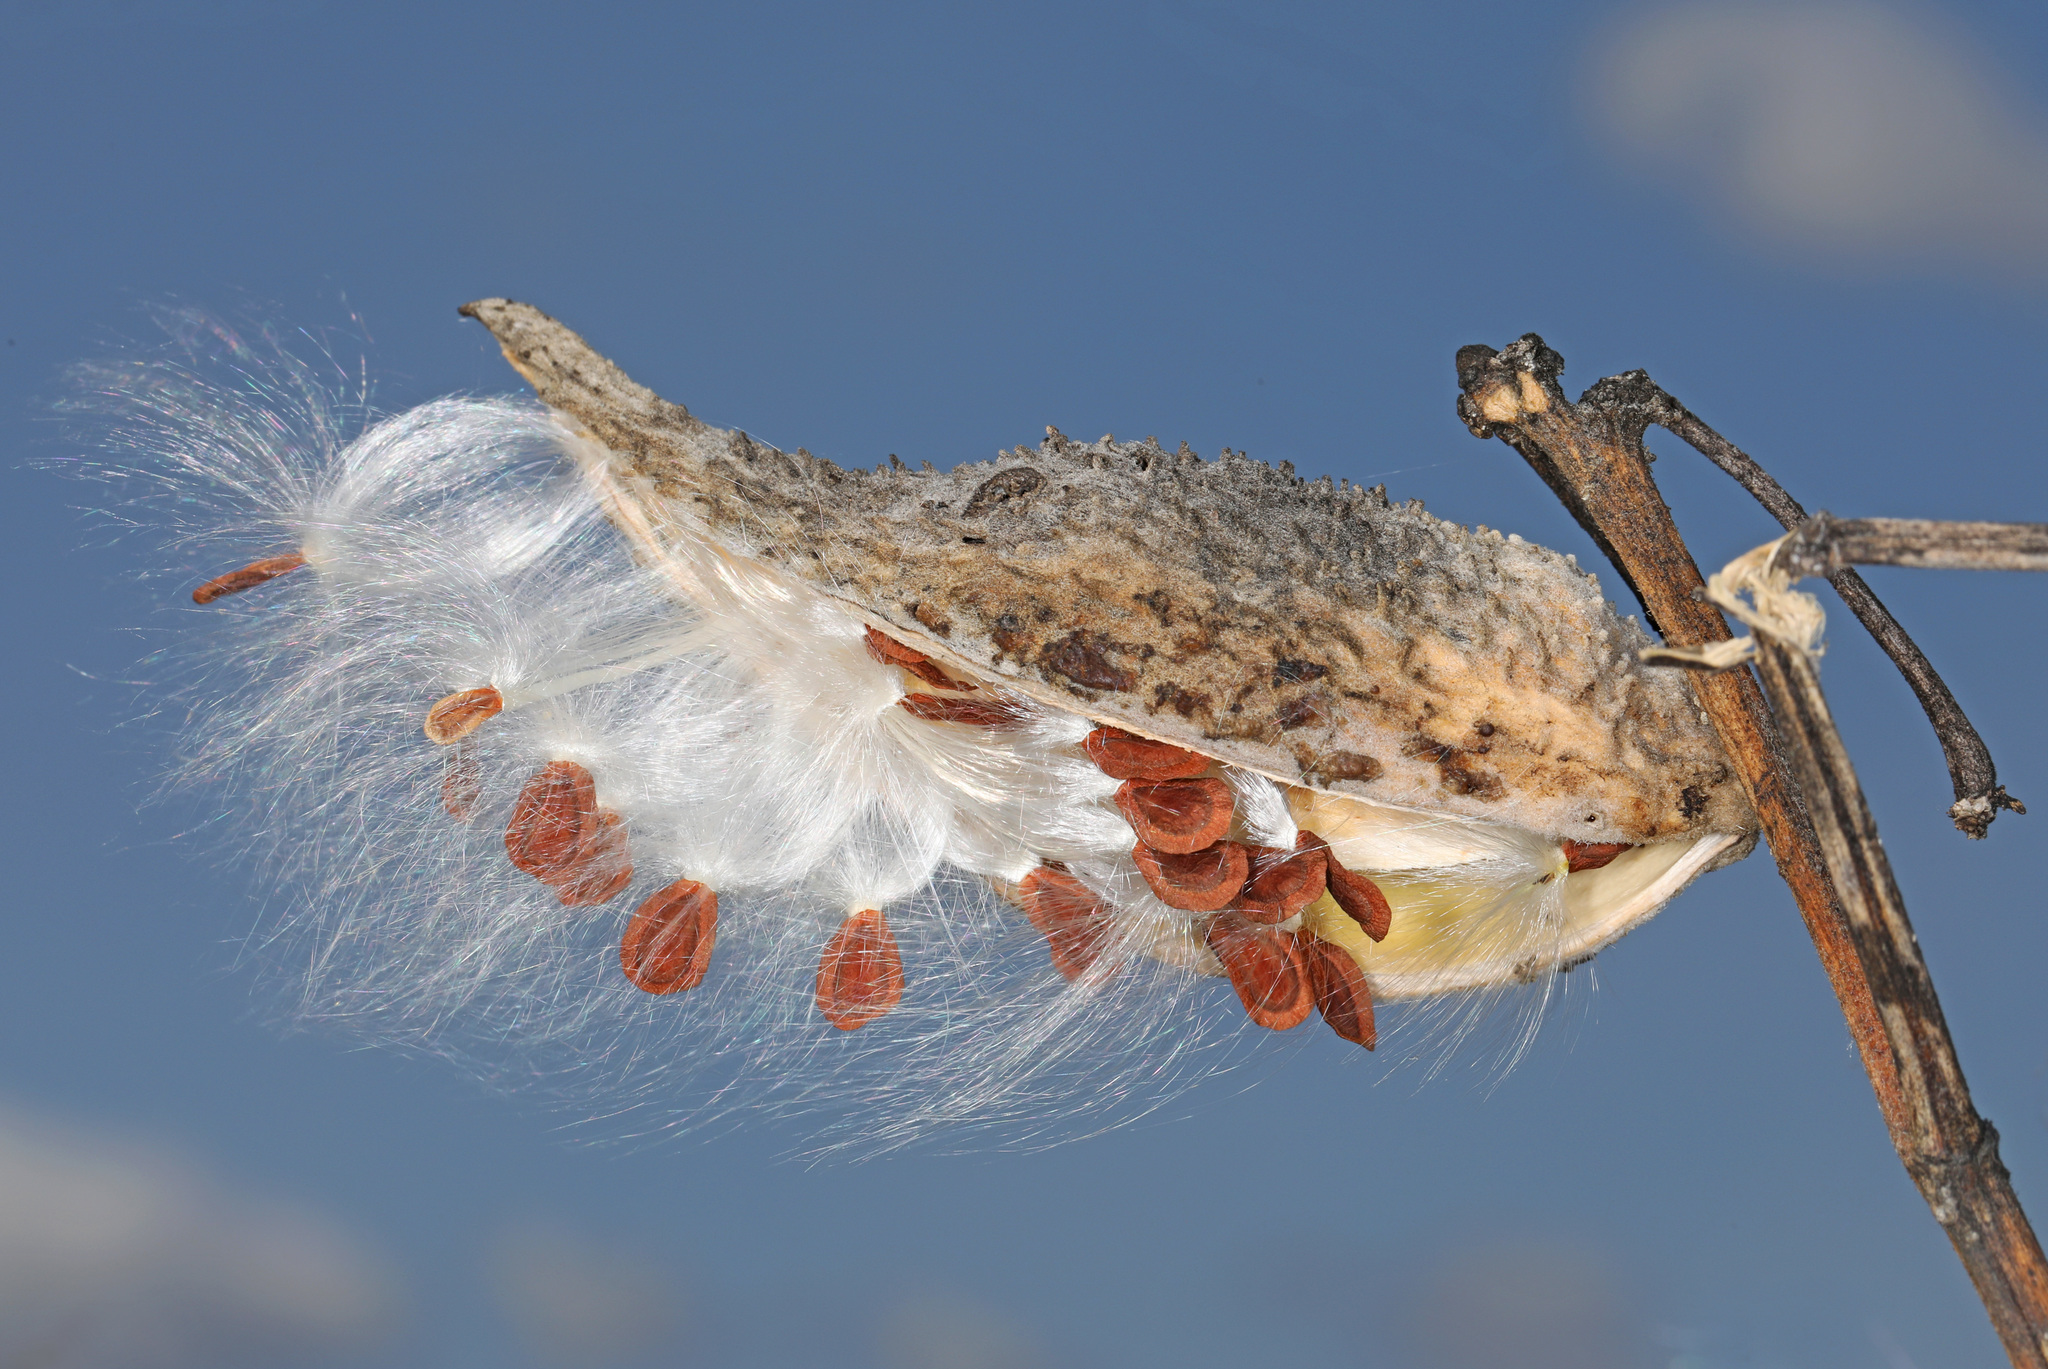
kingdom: Plantae
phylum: Tracheophyta
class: Magnoliopsida
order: Gentianales
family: Apocynaceae
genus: Asclepias
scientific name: Asclepias syriaca
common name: Common milkweed
